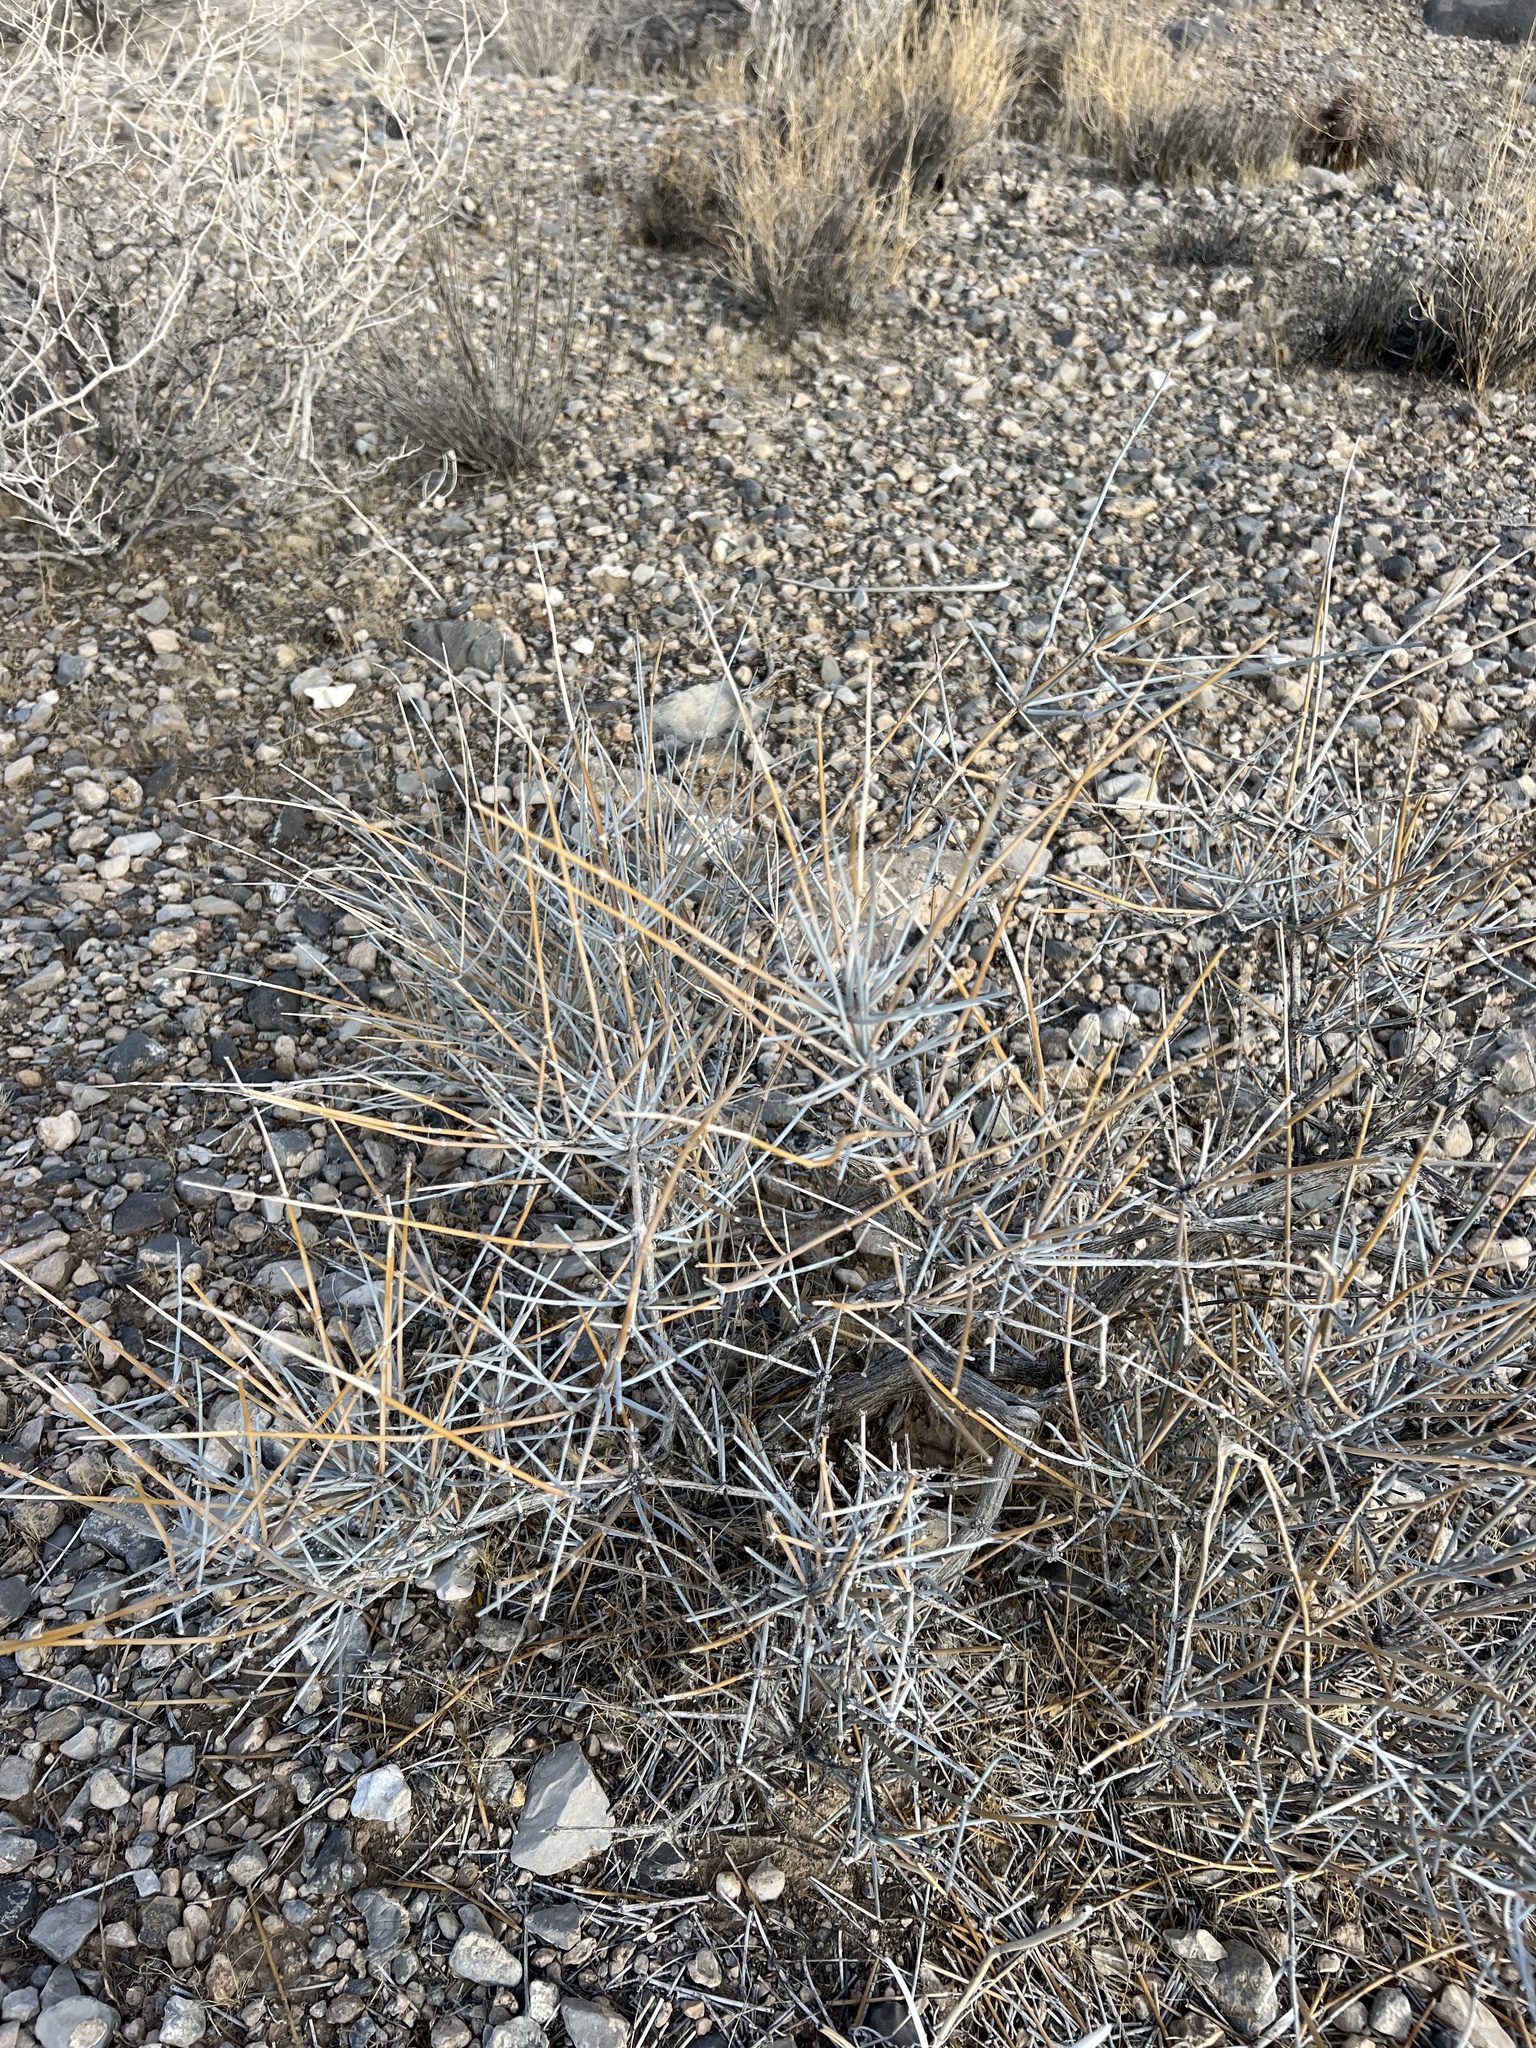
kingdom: Plantae
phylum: Tracheophyta
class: Gnetopsida
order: Ephedrales
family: Ephedraceae
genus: Ephedra
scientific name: Ephedra nevadensis
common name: Gray ephedra
